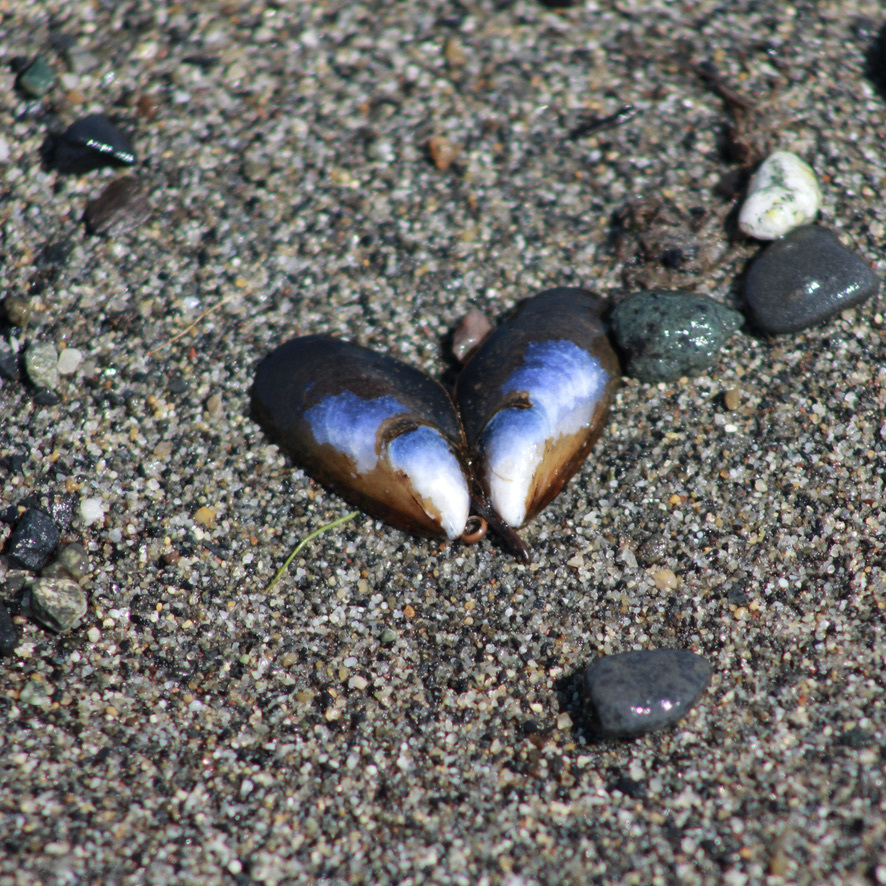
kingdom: Animalia
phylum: Mollusca
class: Bivalvia
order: Mytilida
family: Mytilidae
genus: Mytilus
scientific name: Mytilus trossulus
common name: Northern blue mussel
